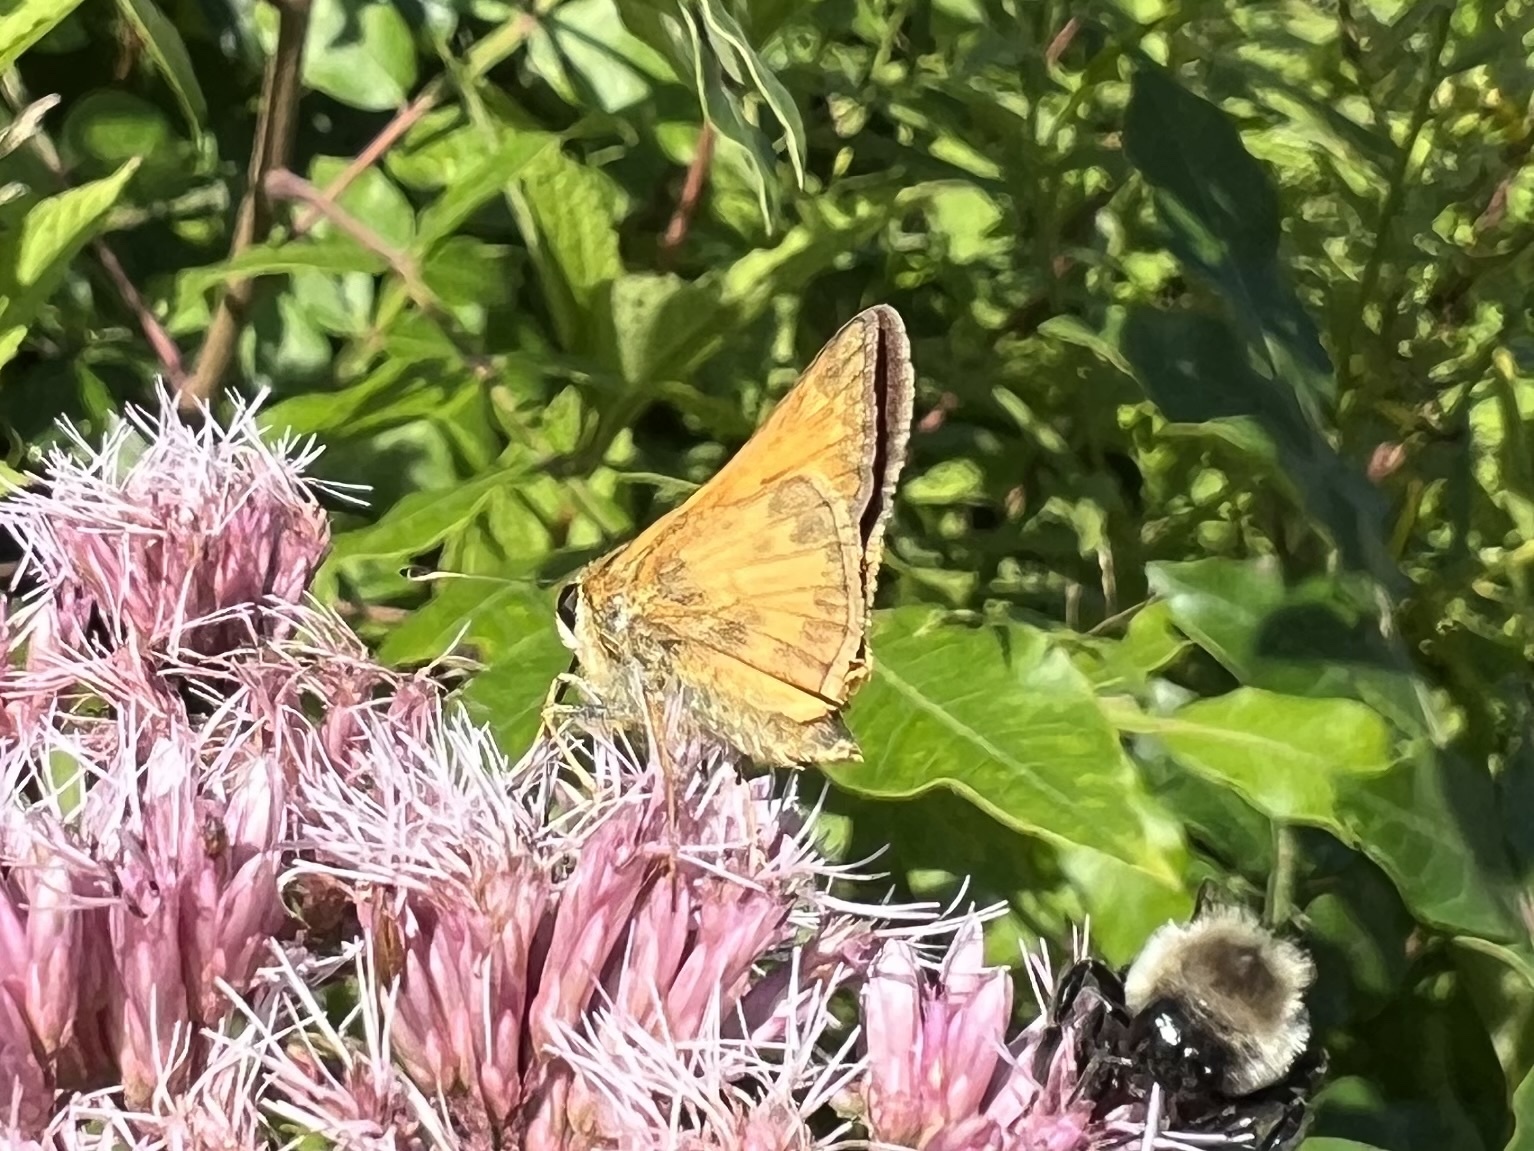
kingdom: Animalia
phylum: Arthropoda
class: Insecta
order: Lepidoptera
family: Hesperiidae
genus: Atalopedes
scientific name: Atalopedes
